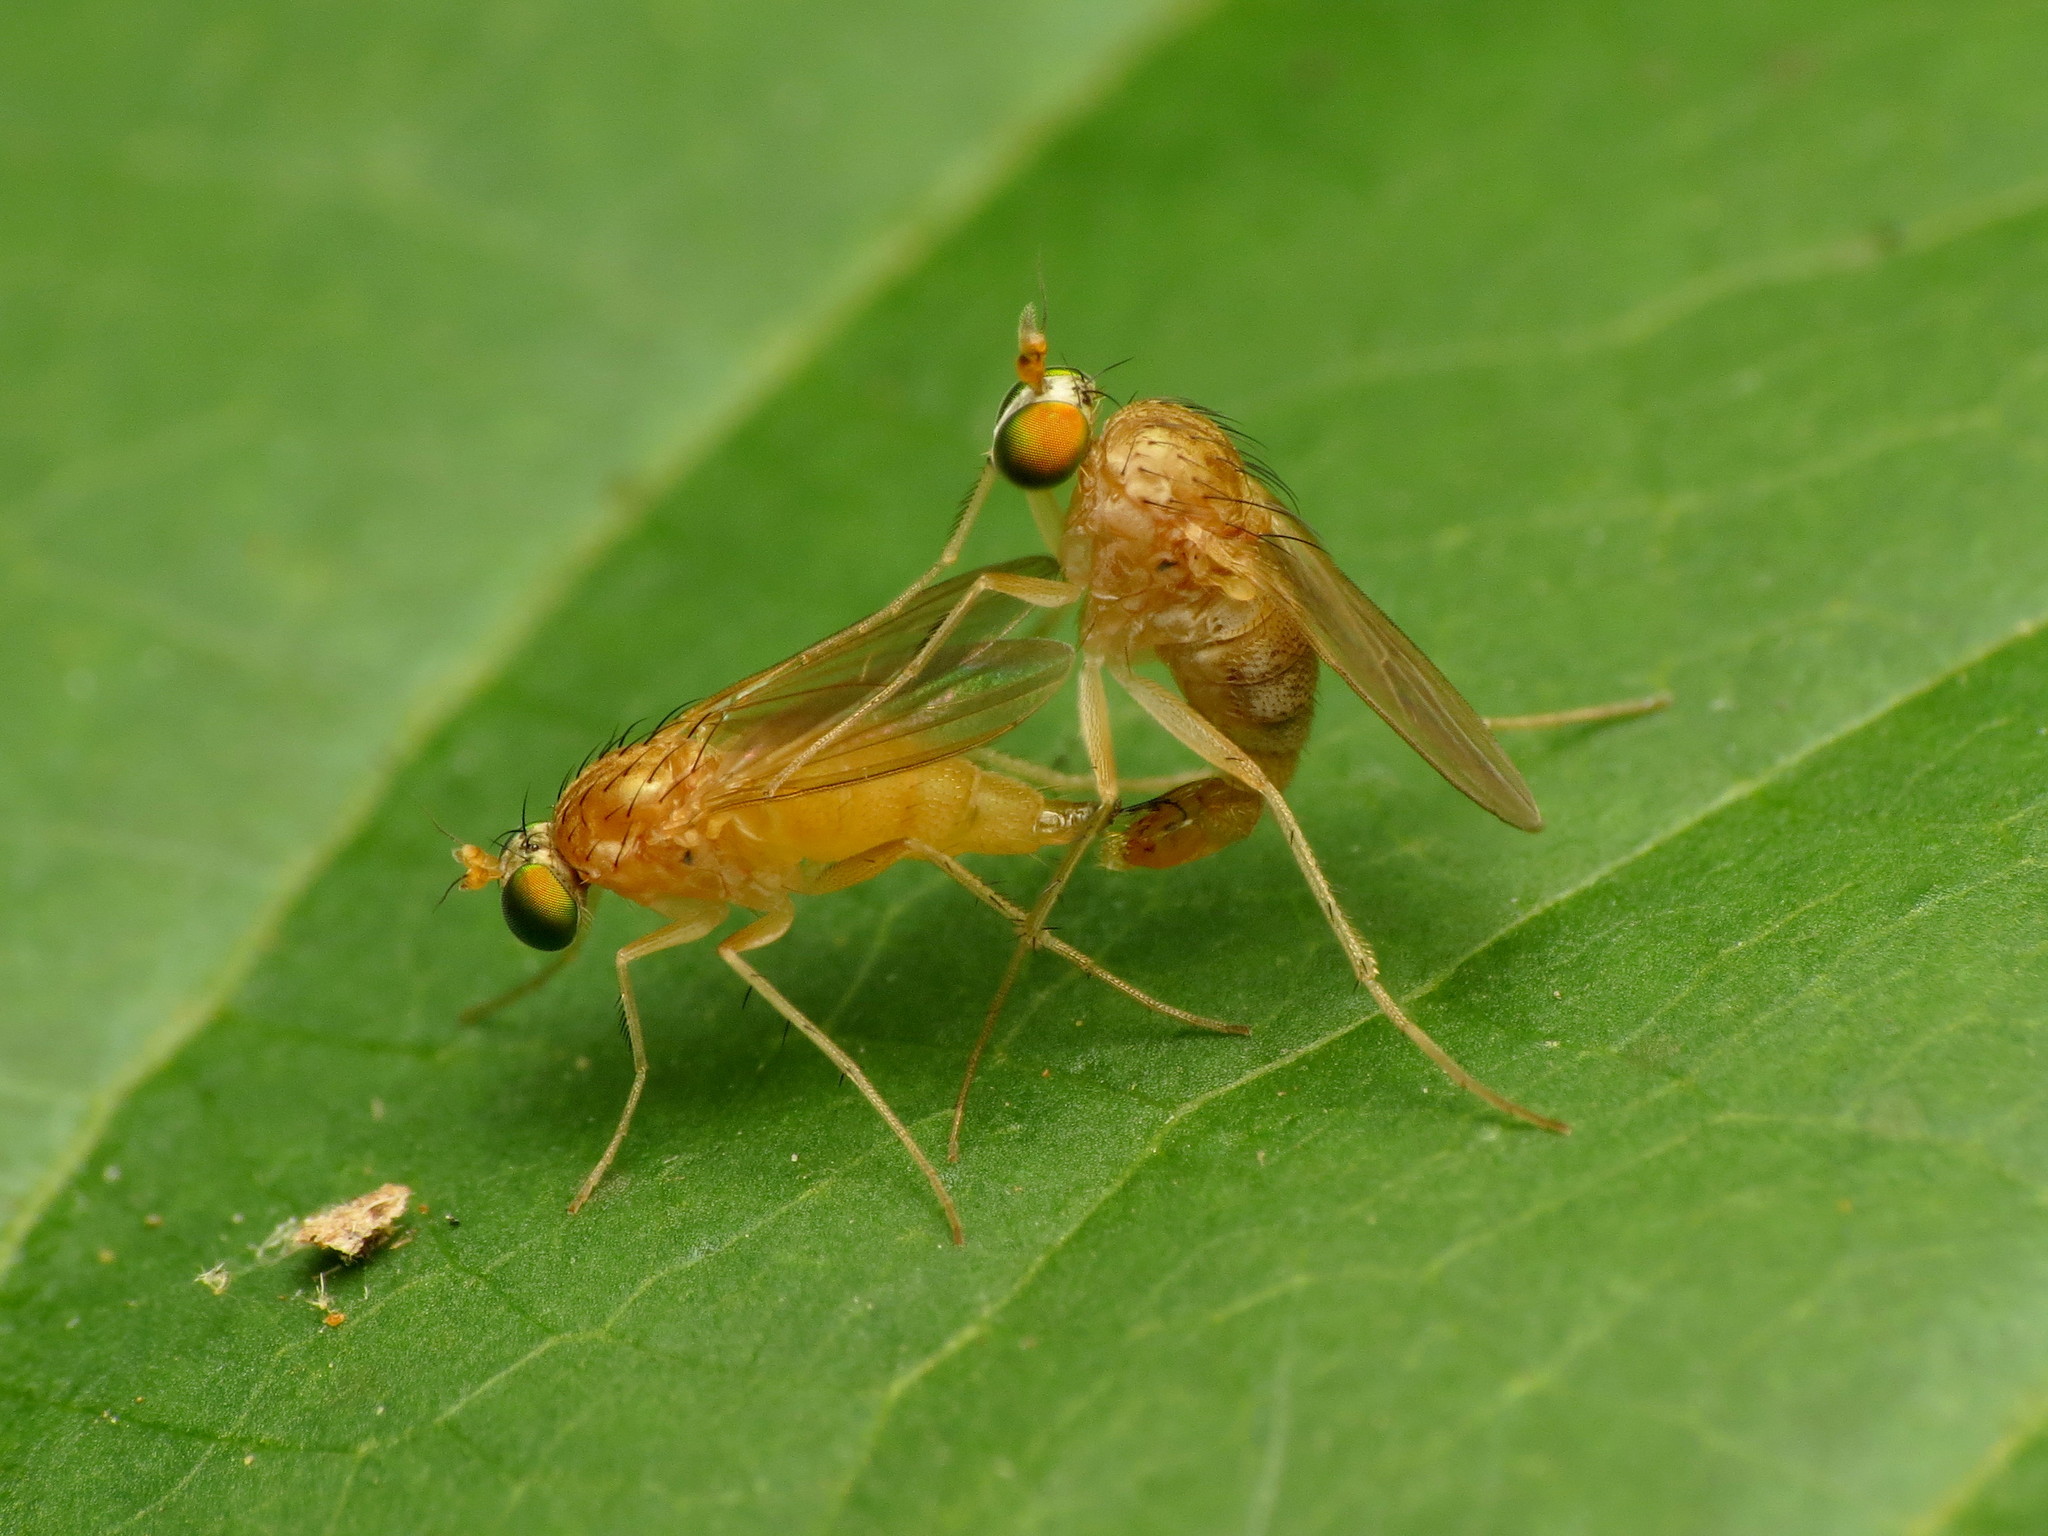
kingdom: Animalia
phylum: Arthropoda
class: Insecta
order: Diptera
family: Dolichopodidae
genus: Gymnopternus
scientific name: Gymnopternus flavus
